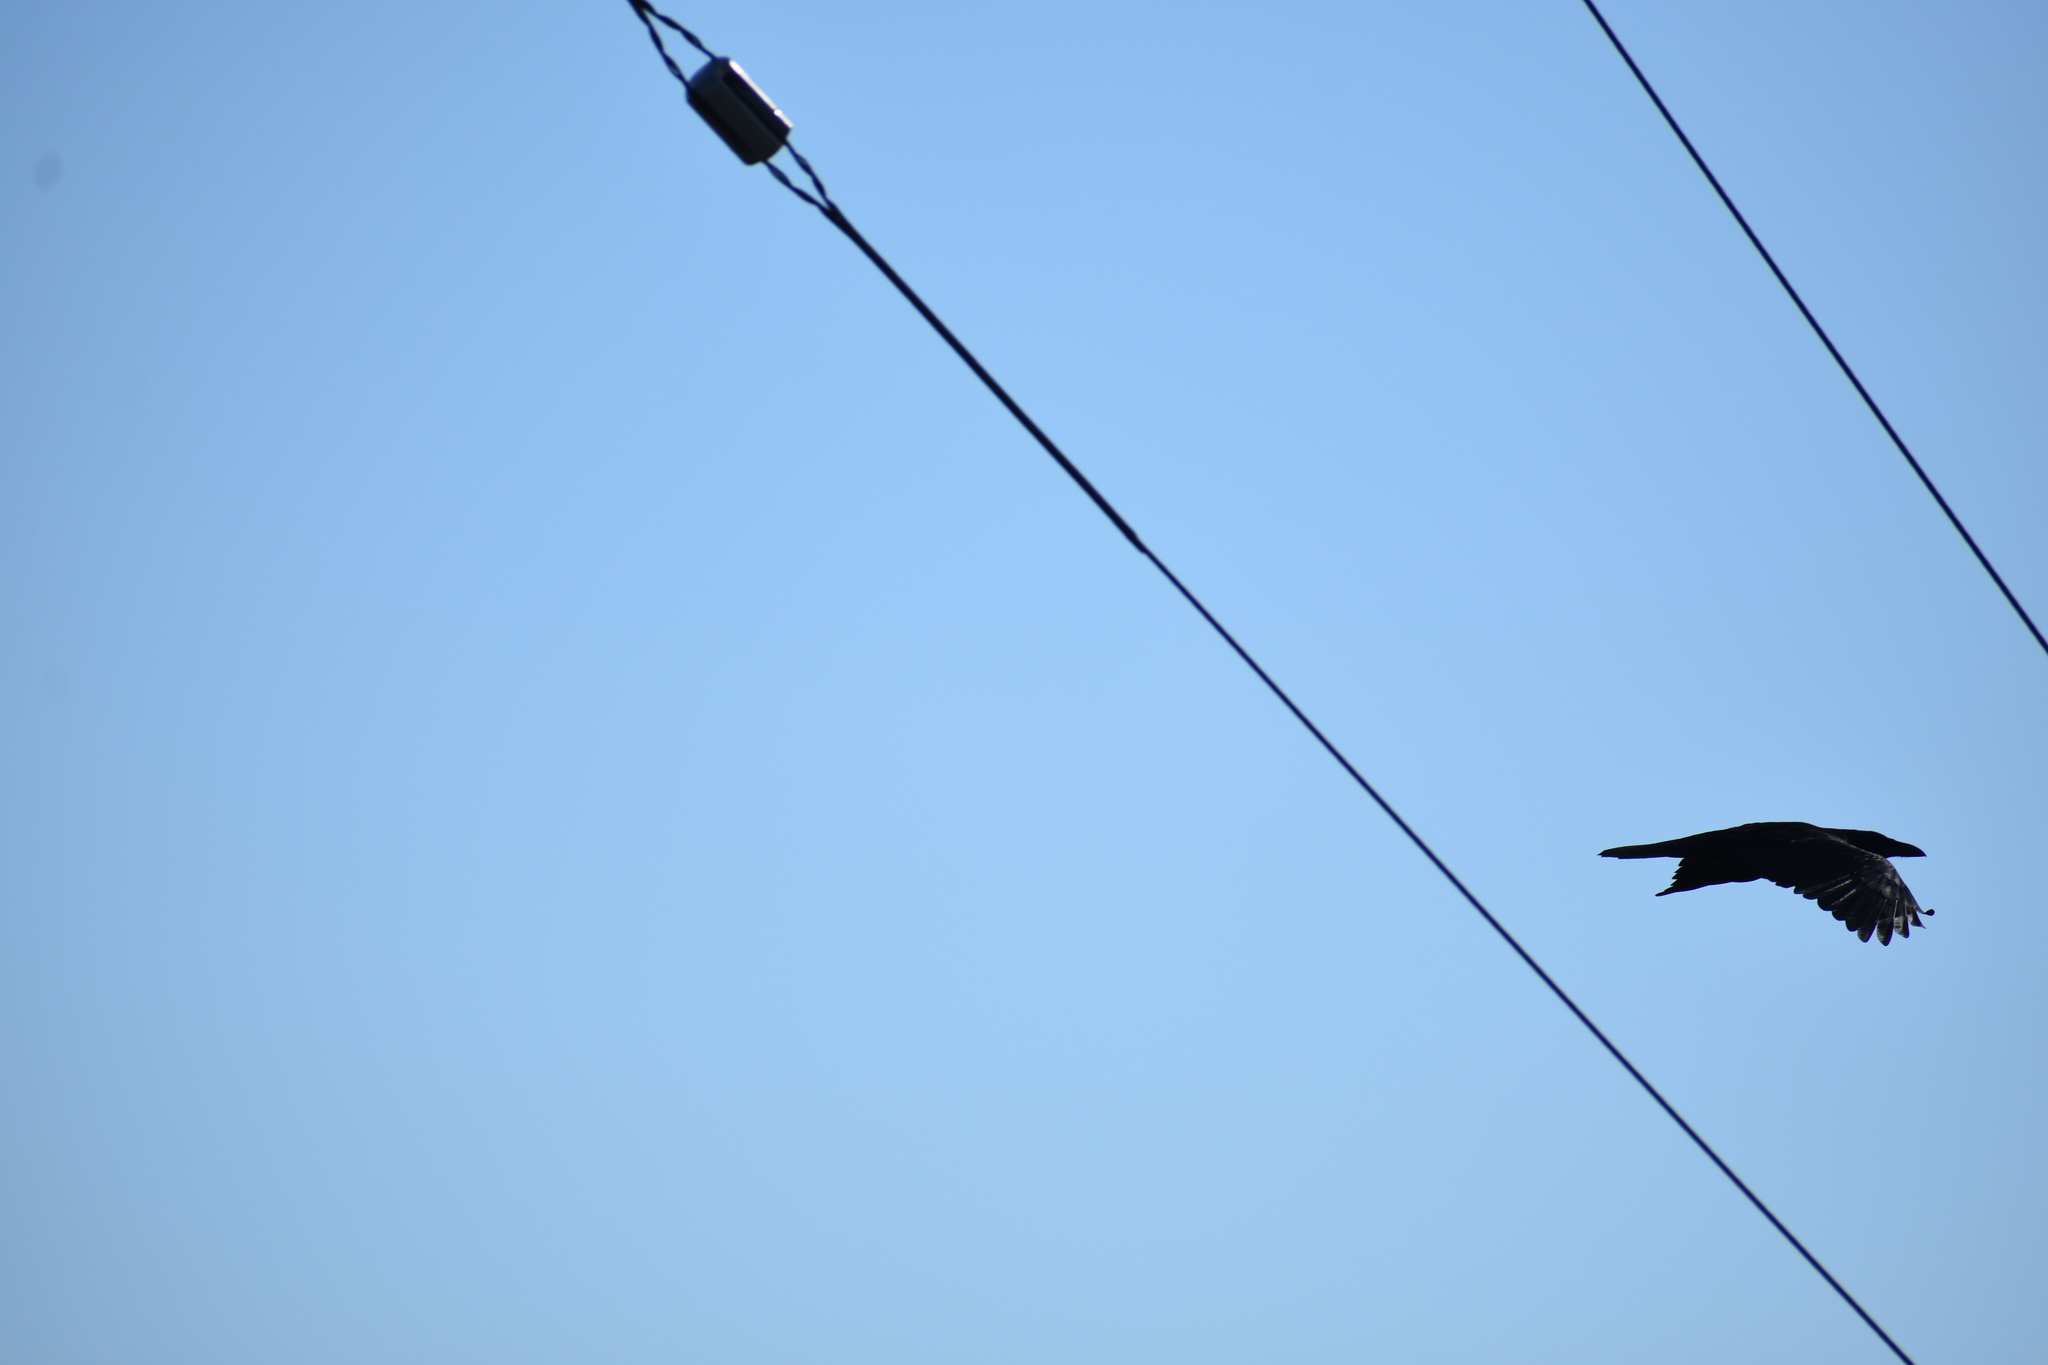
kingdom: Animalia
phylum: Chordata
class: Aves
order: Passeriformes
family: Corvidae
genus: Corvus
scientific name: Corvus corax
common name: Common raven
